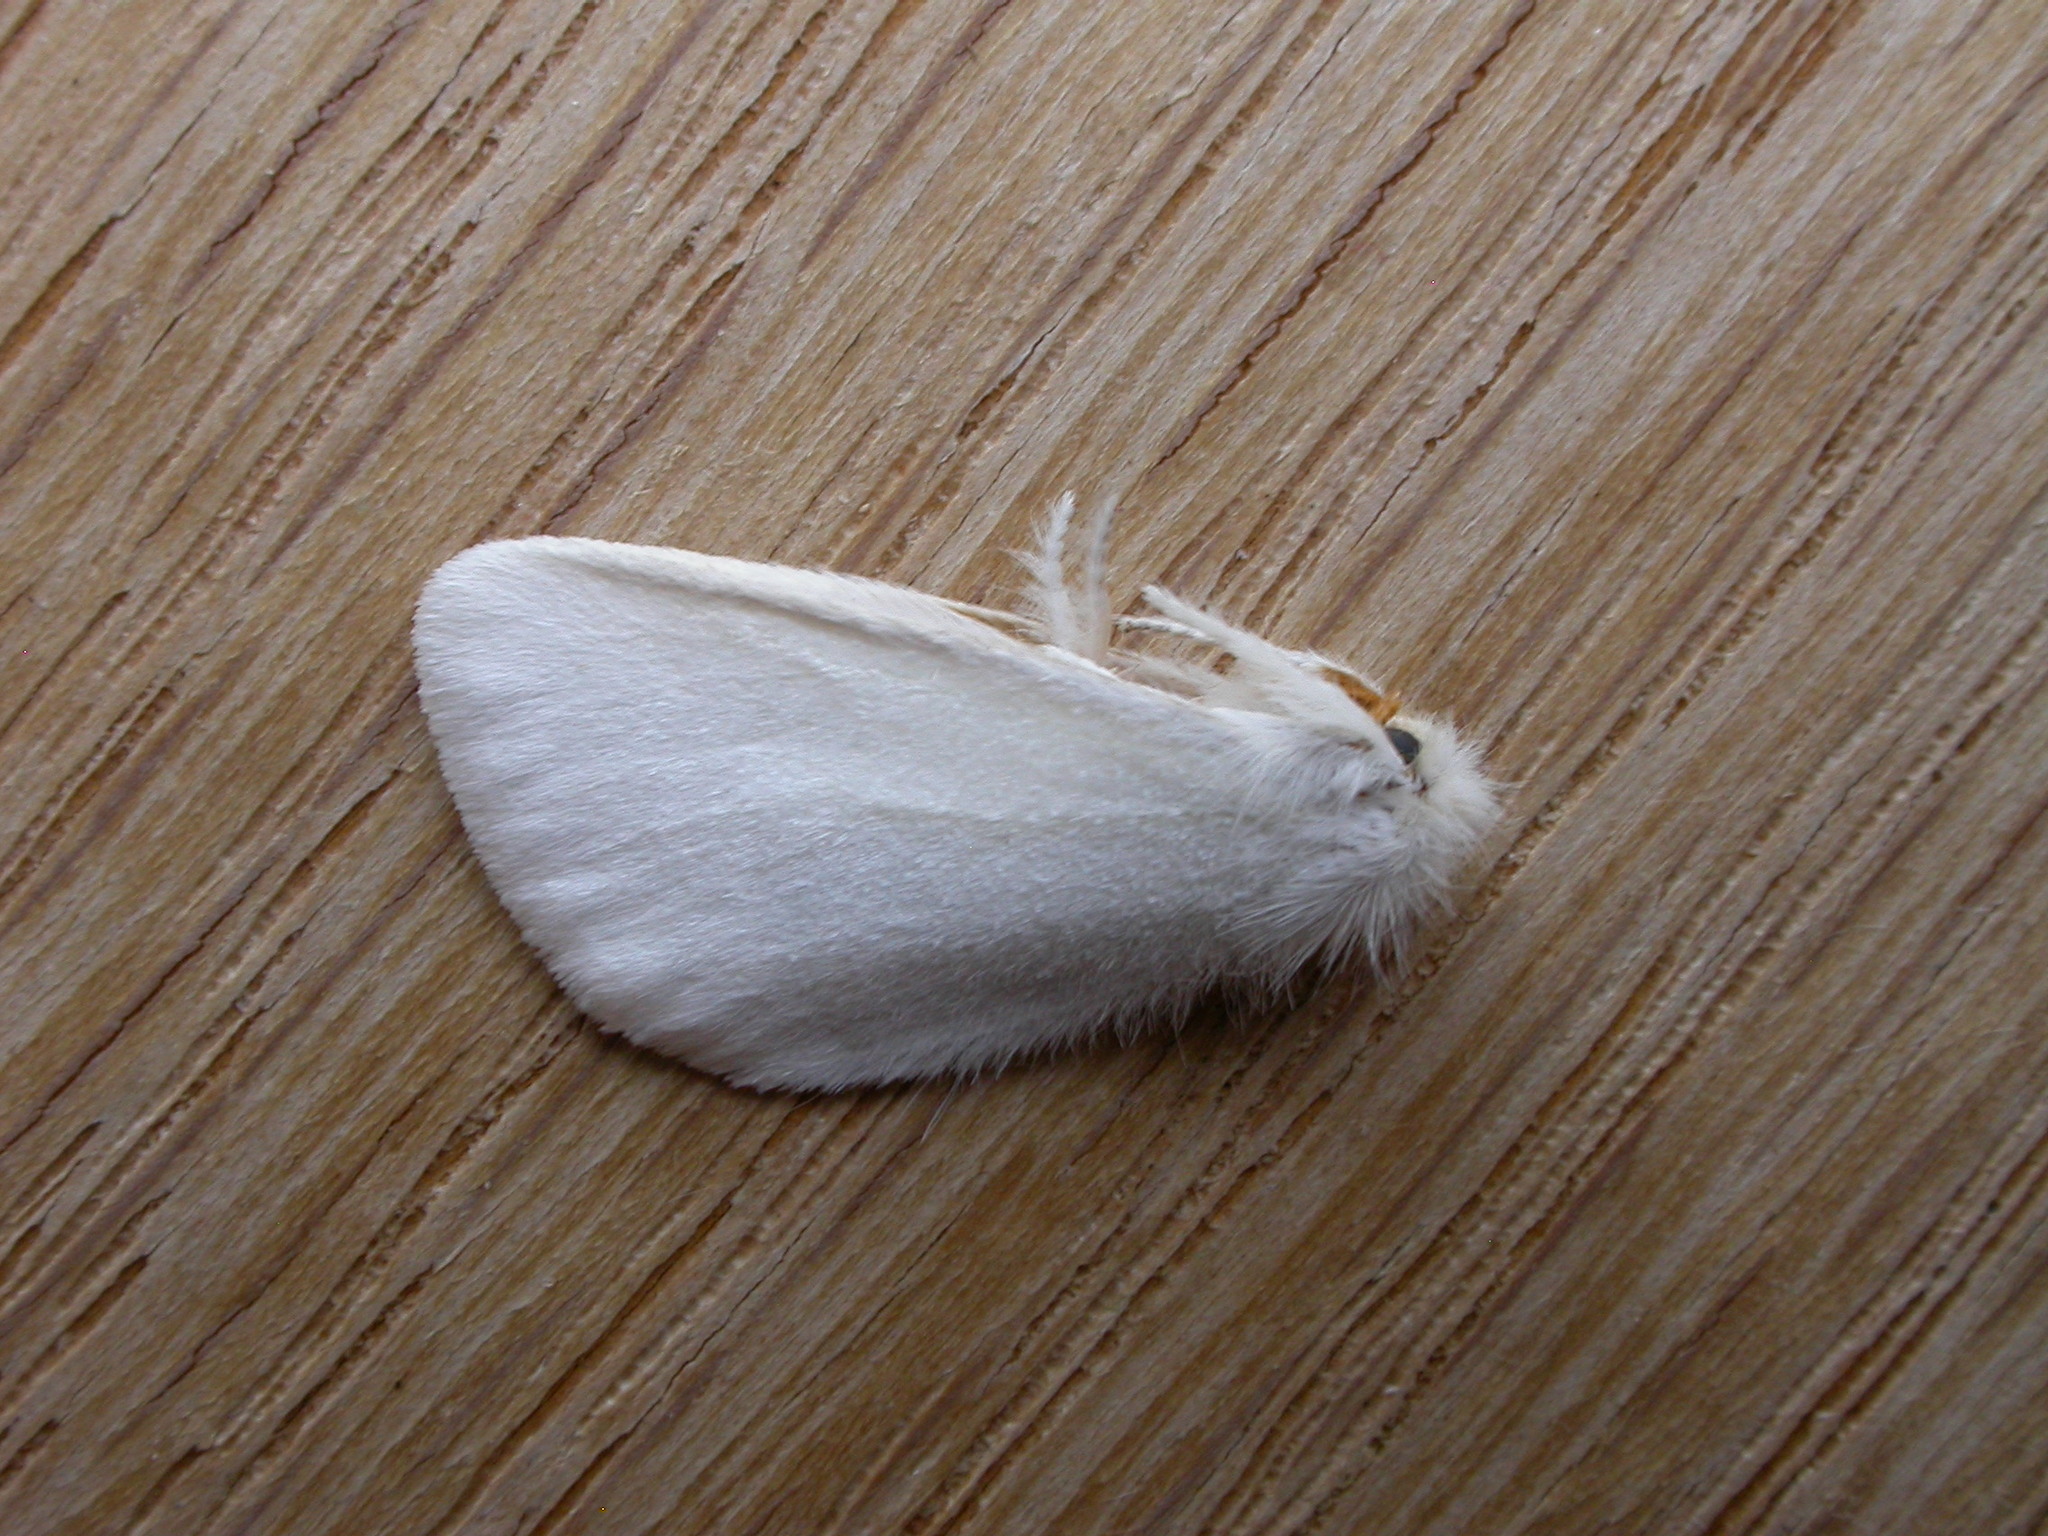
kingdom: Animalia
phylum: Arthropoda
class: Insecta
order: Lepidoptera
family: Erebidae
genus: Acyphas
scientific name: Acyphas chionitis
